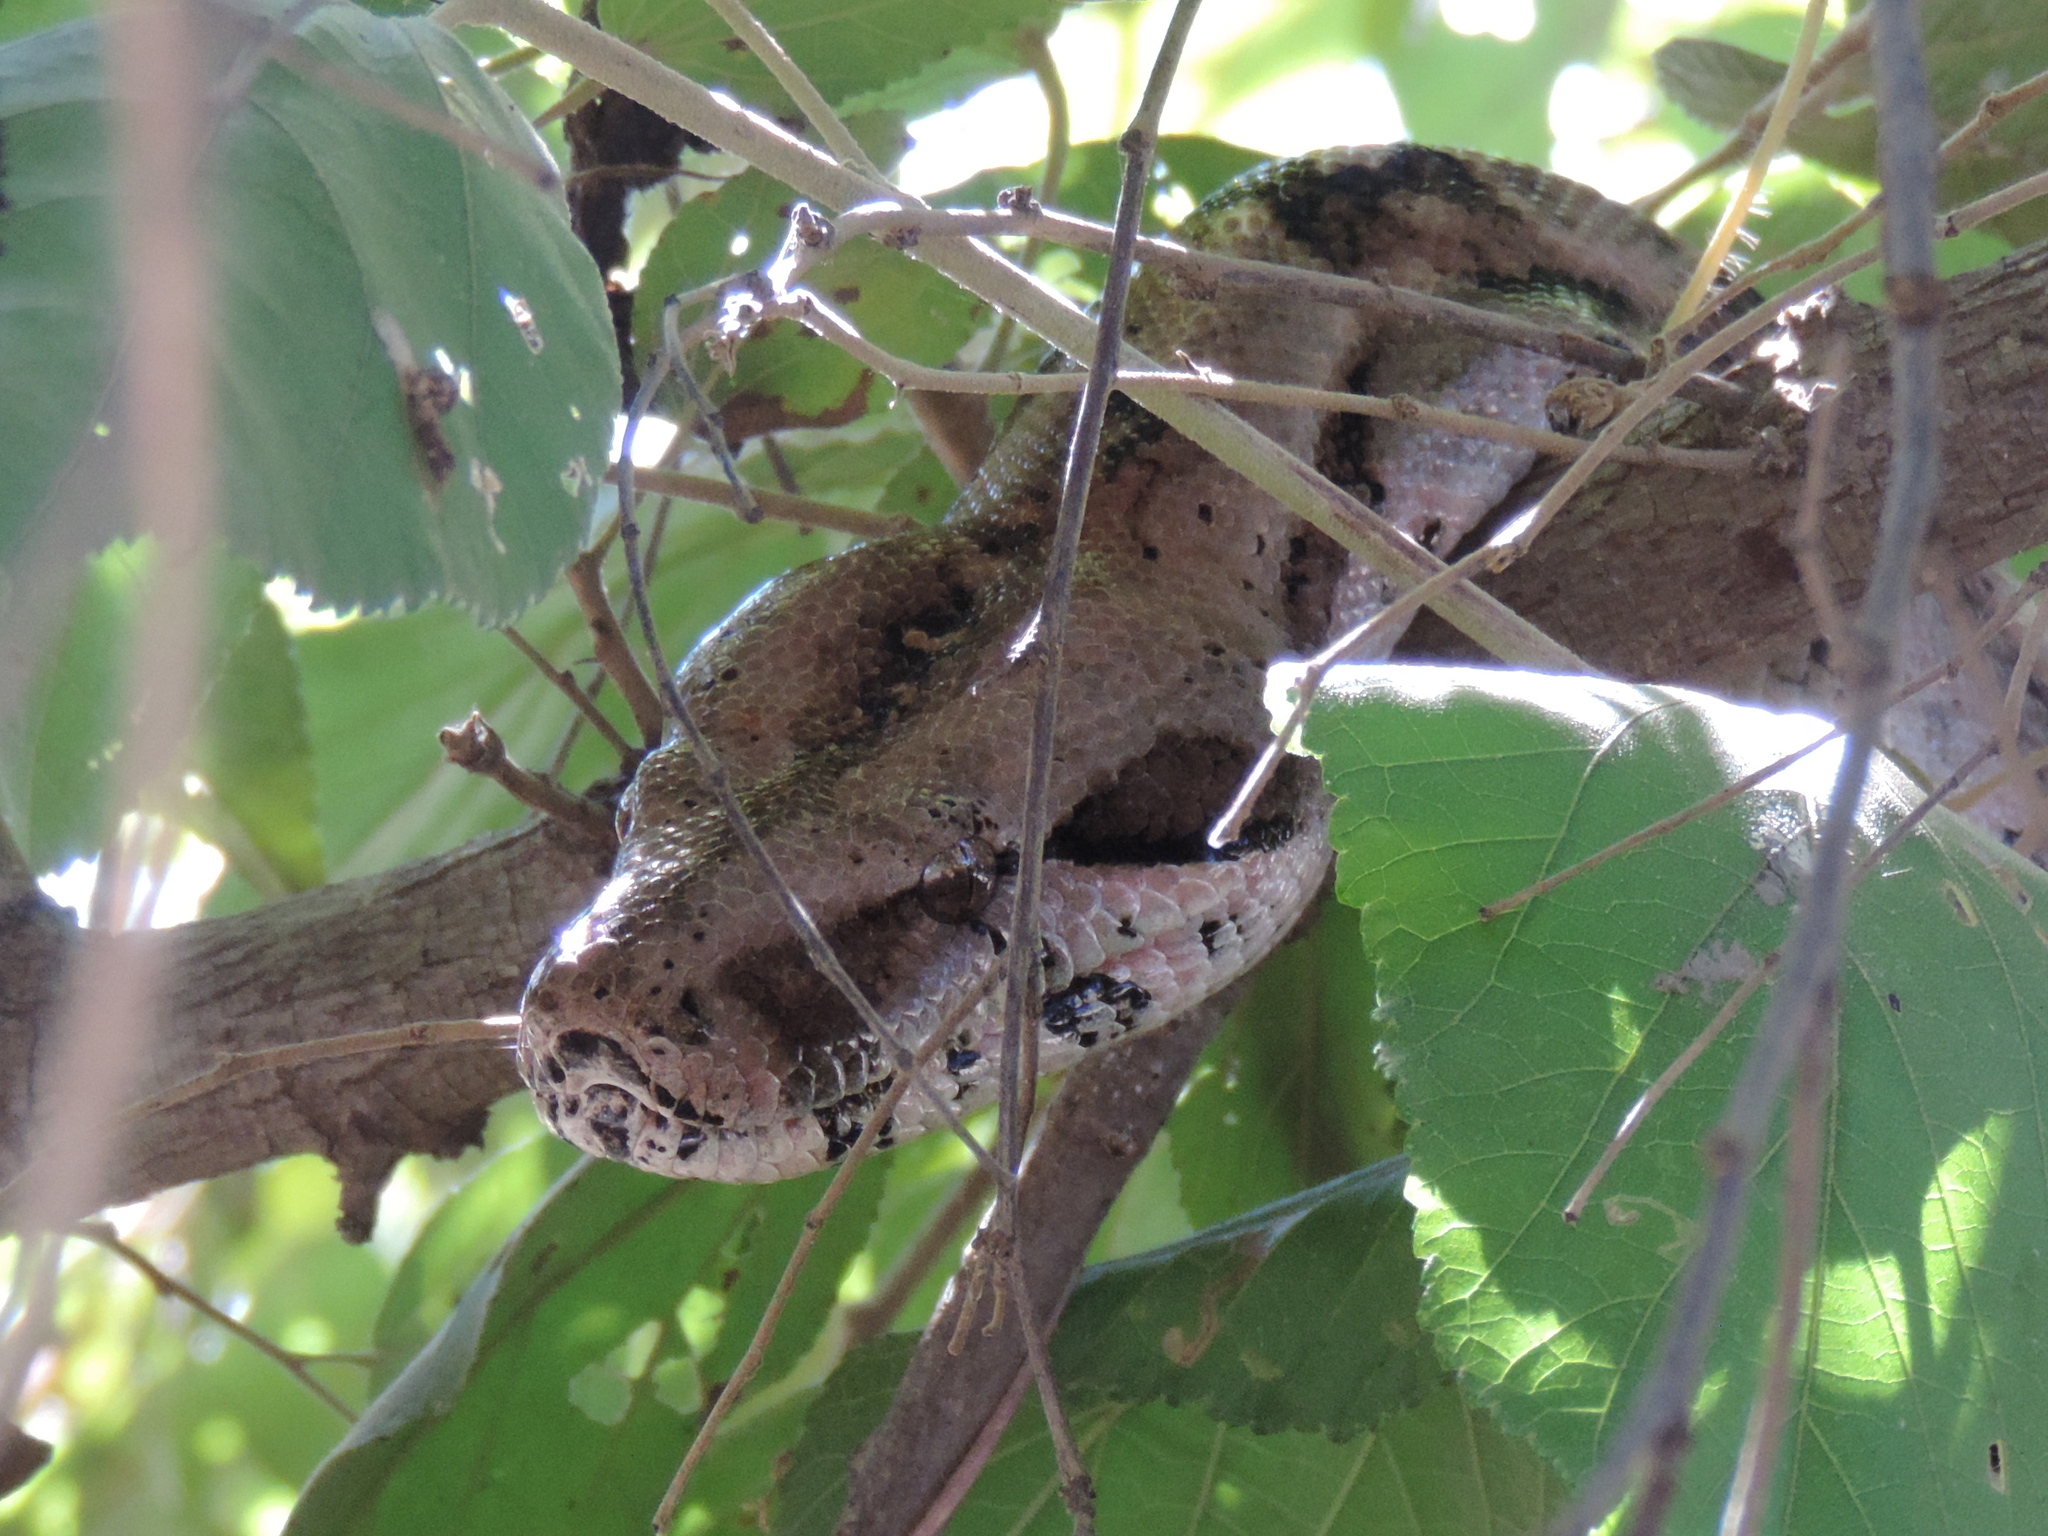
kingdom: Animalia
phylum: Chordata
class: Squamata
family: Boidae
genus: Boa
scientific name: Boa
